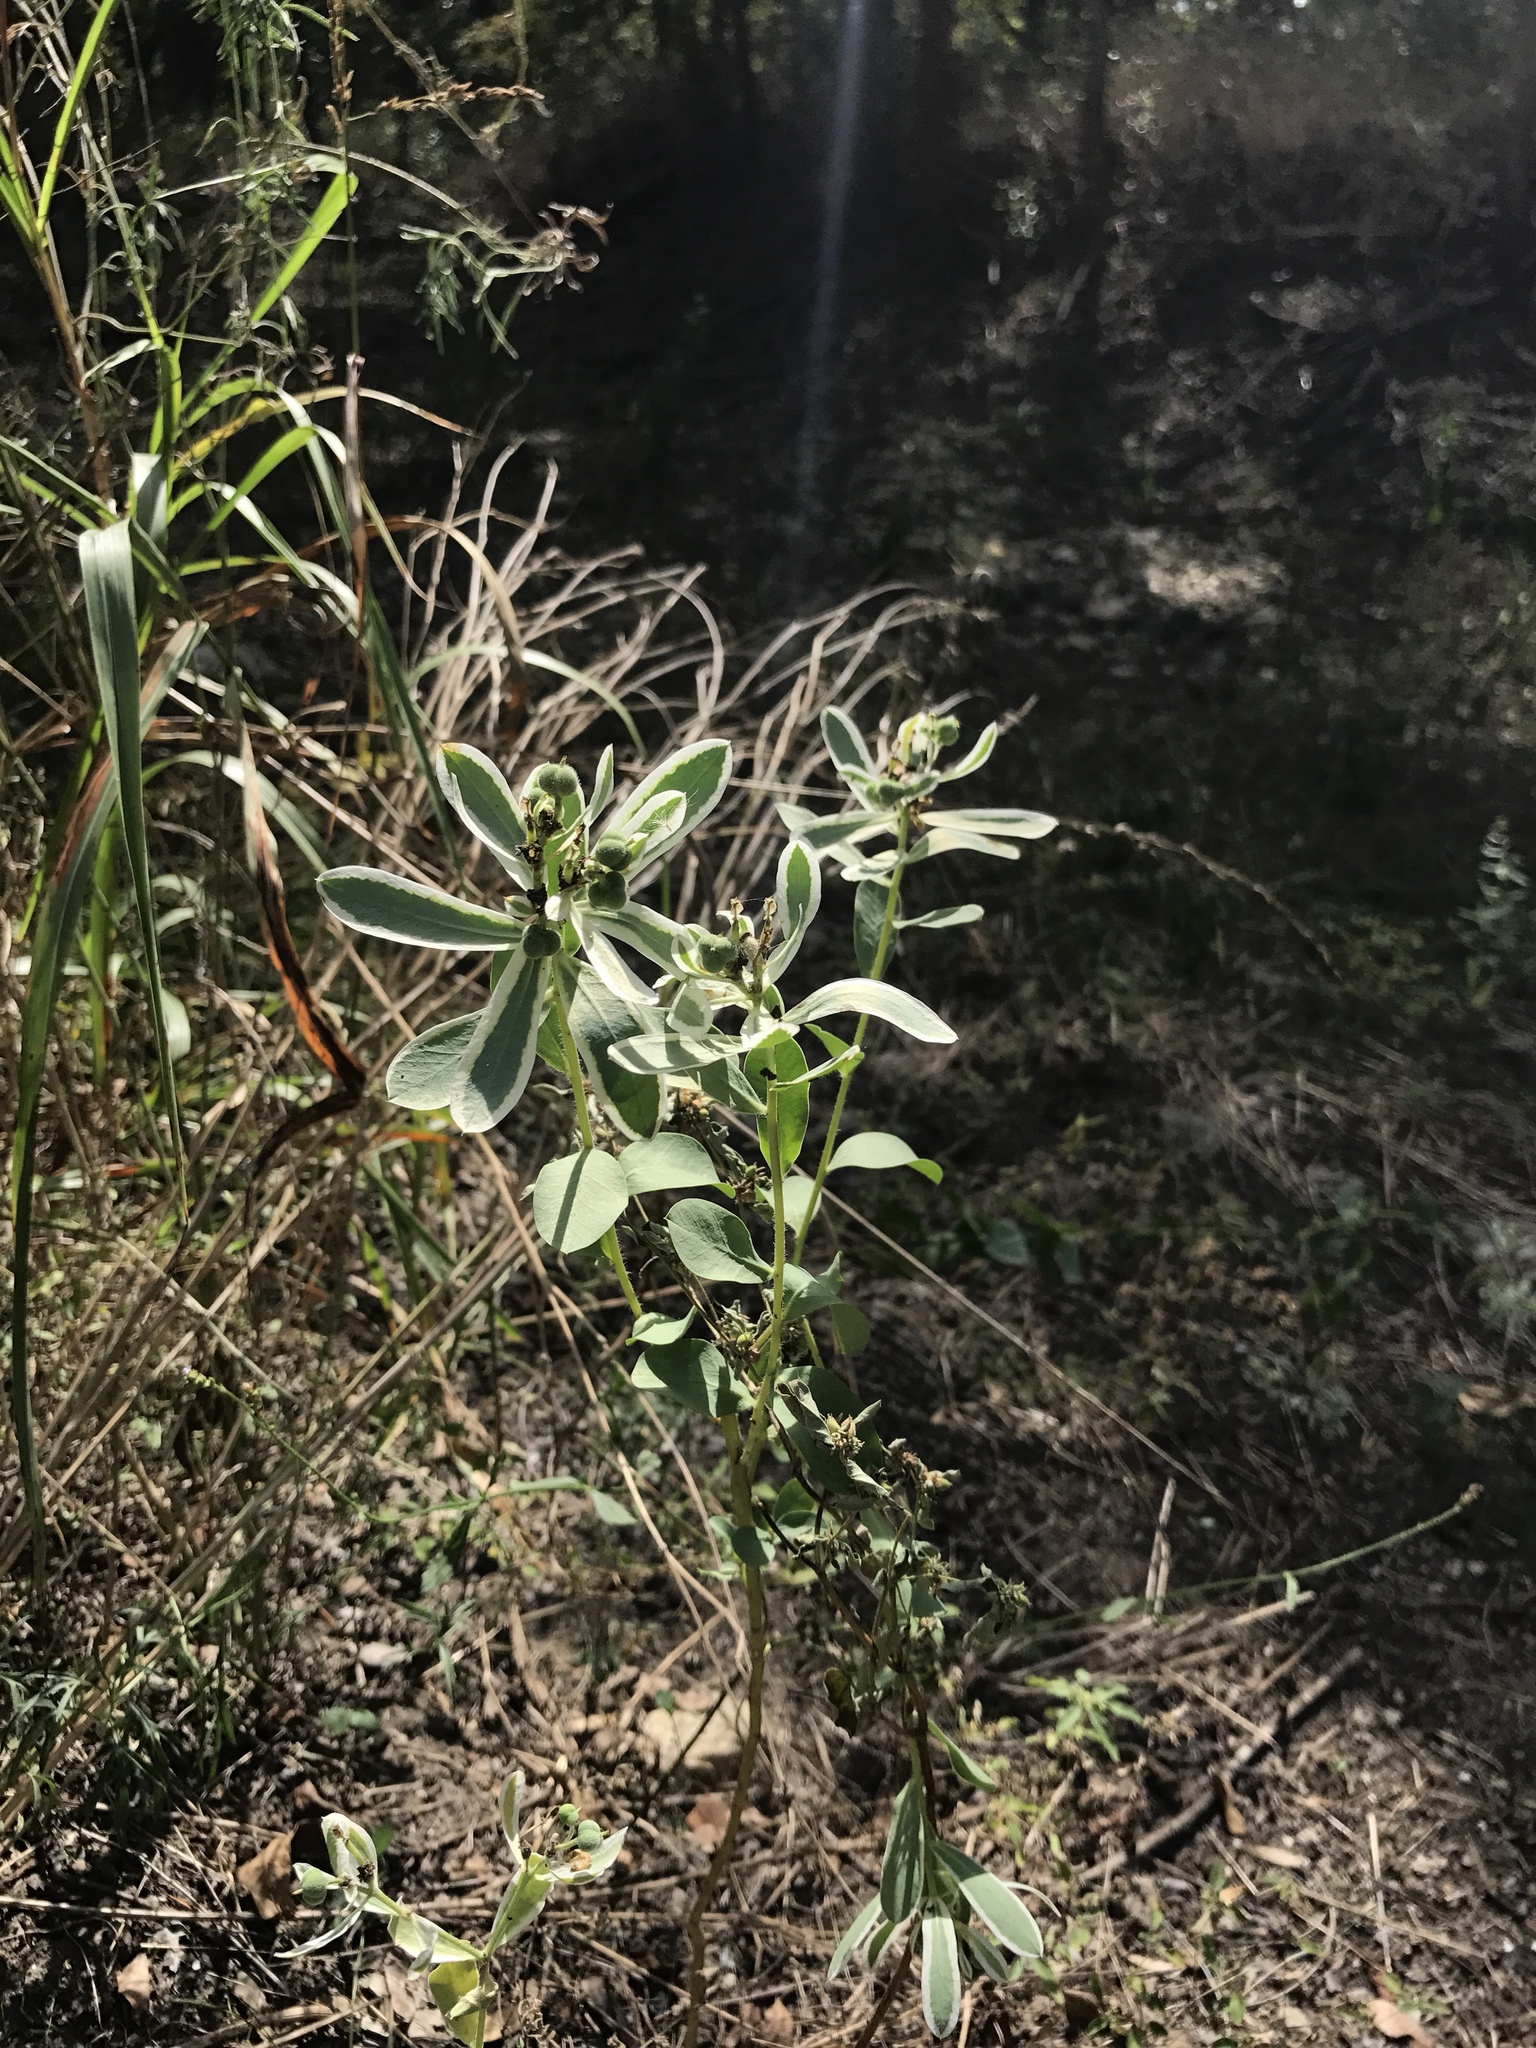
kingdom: Plantae
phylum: Tracheophyta
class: Magnoliopsida
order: Malpighiales
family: Euphorbiaceae
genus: Euphorbia
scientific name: Euphorbia marginata
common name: Ghostweed
